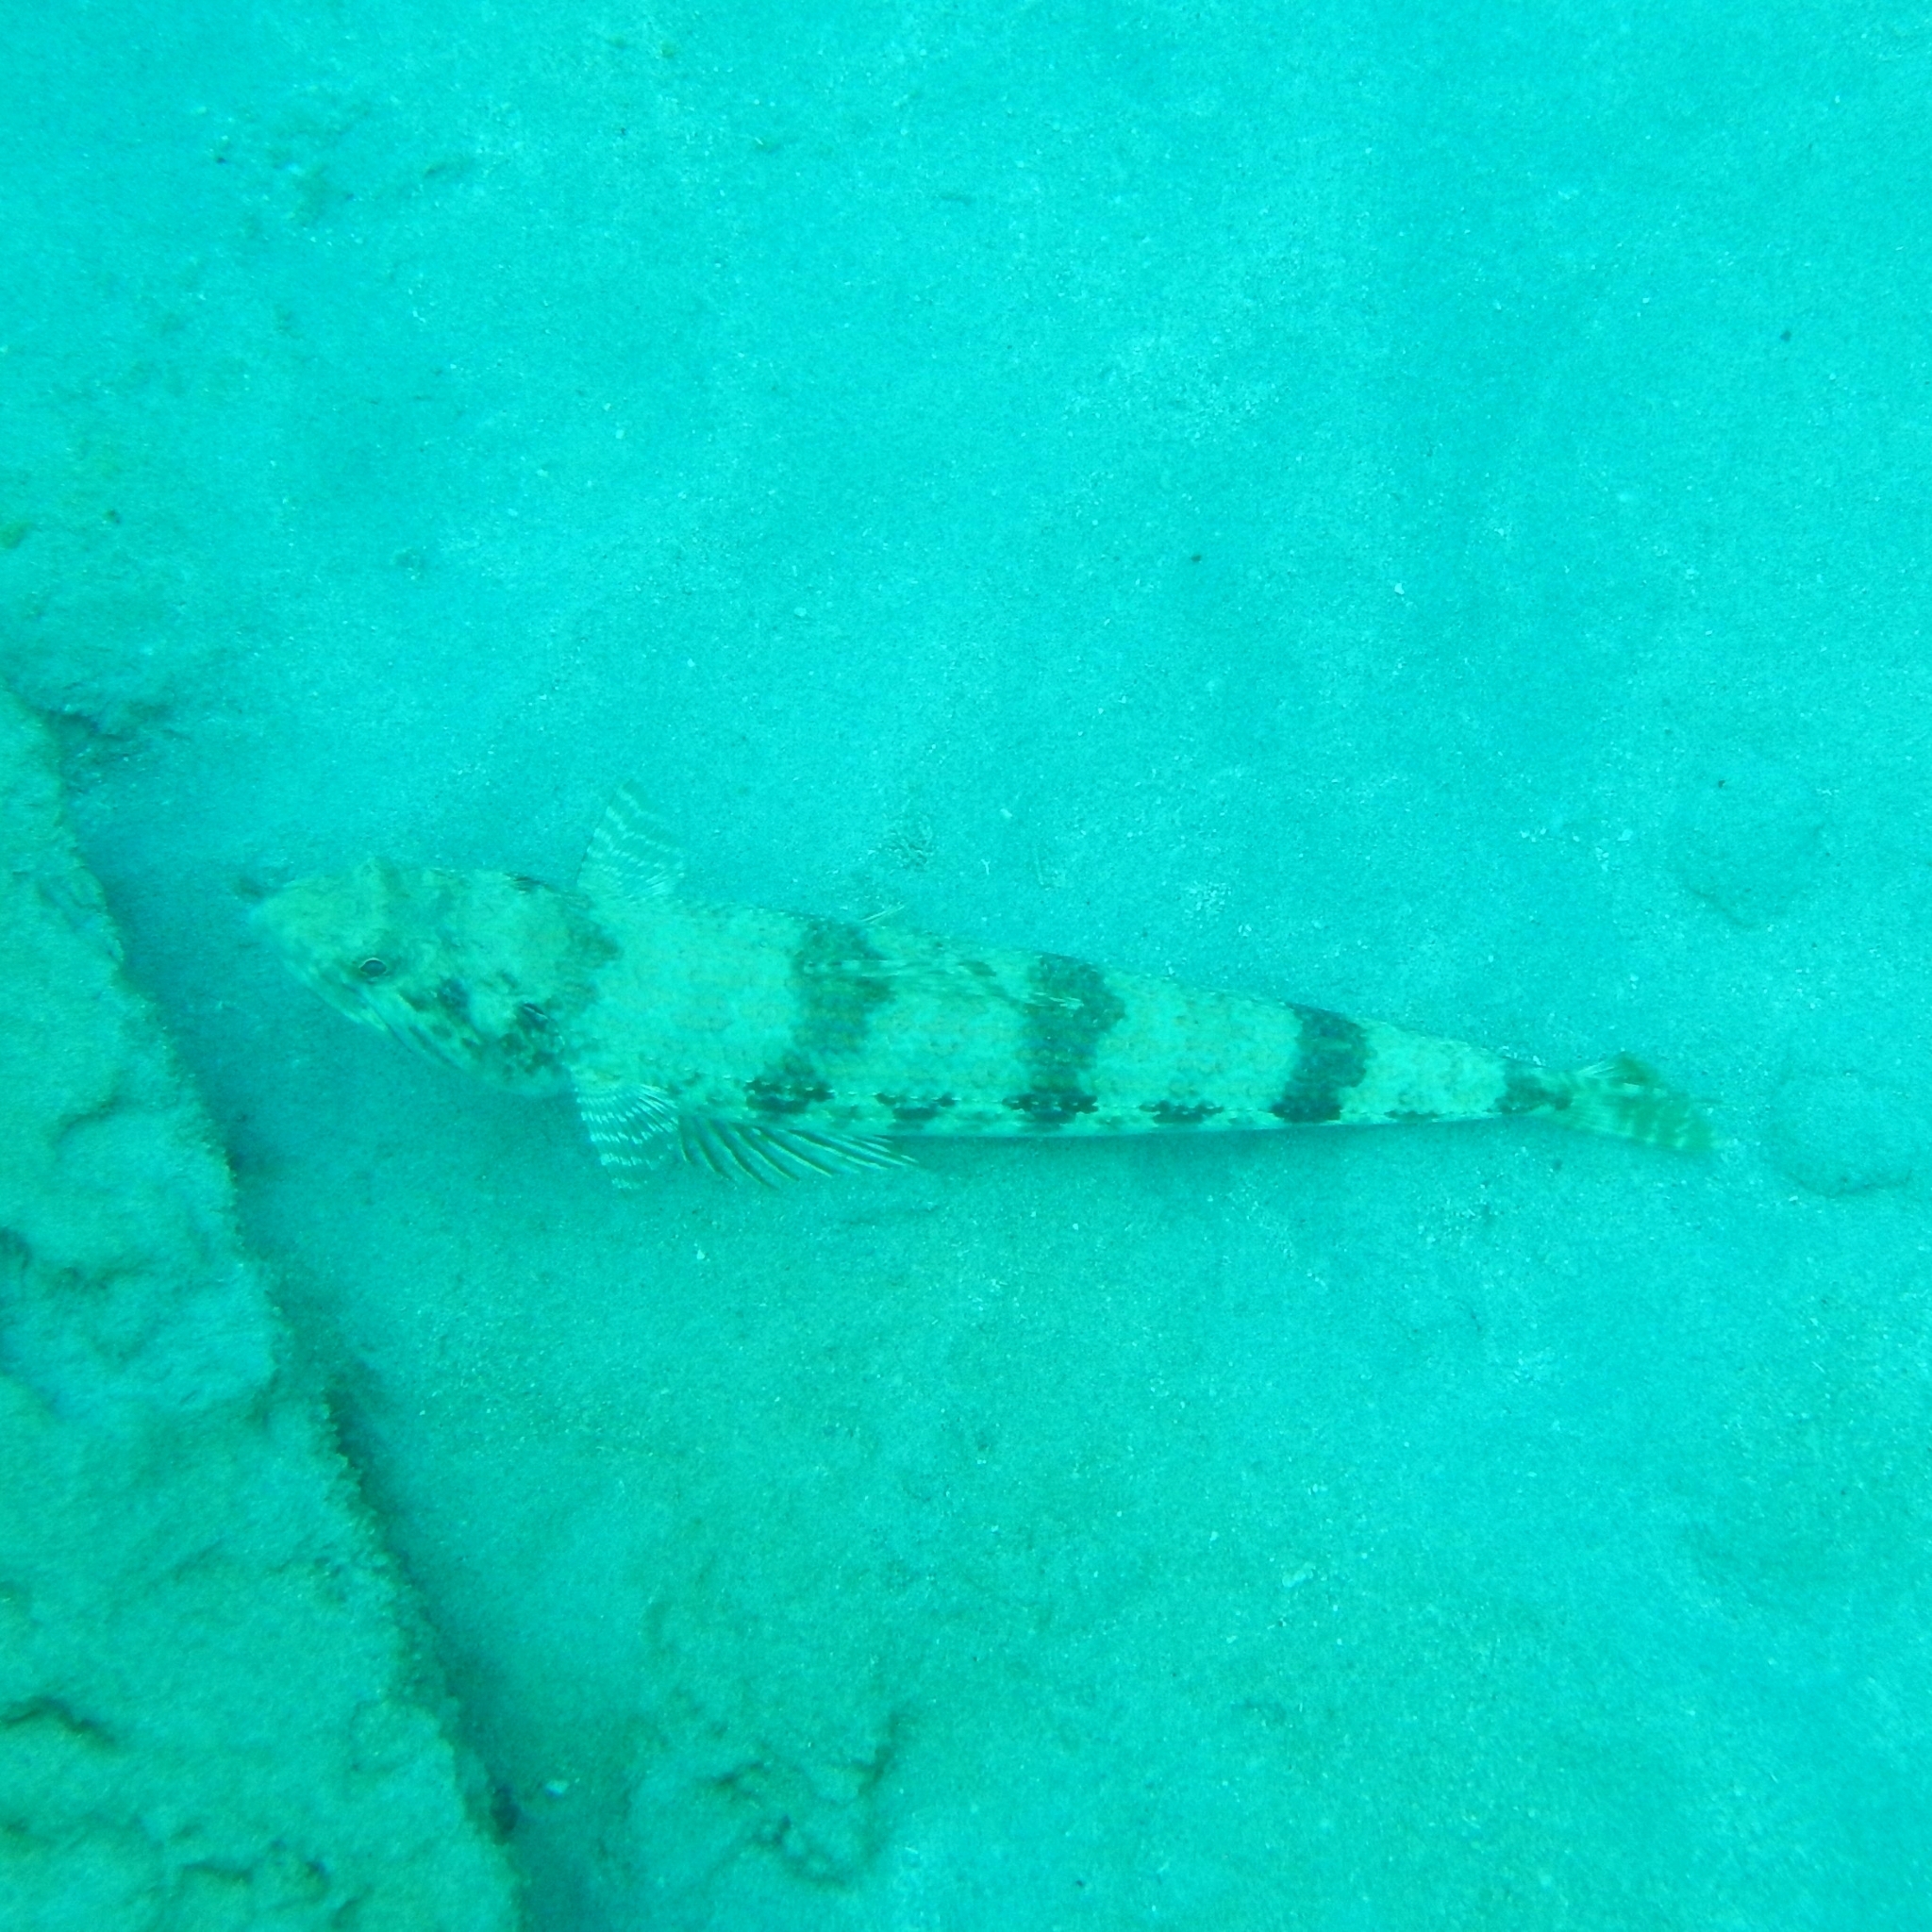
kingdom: Animalia
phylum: Chordata
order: Aulopiformes
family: Synodontidae
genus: Synodus
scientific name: Synodus intermedius
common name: Sand diver
